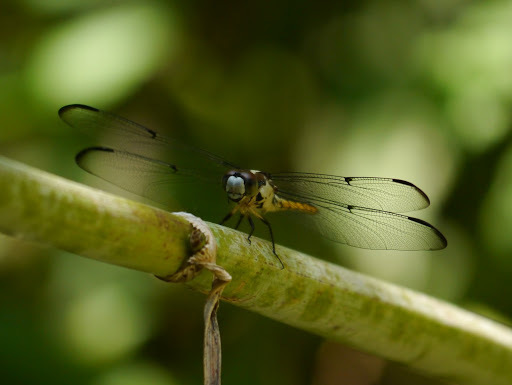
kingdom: Animalia
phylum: Arthropoda
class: Insecta
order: Odonata
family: Libellulidae
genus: Libellula
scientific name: Libellula vibrans
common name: Great blue skimmer
